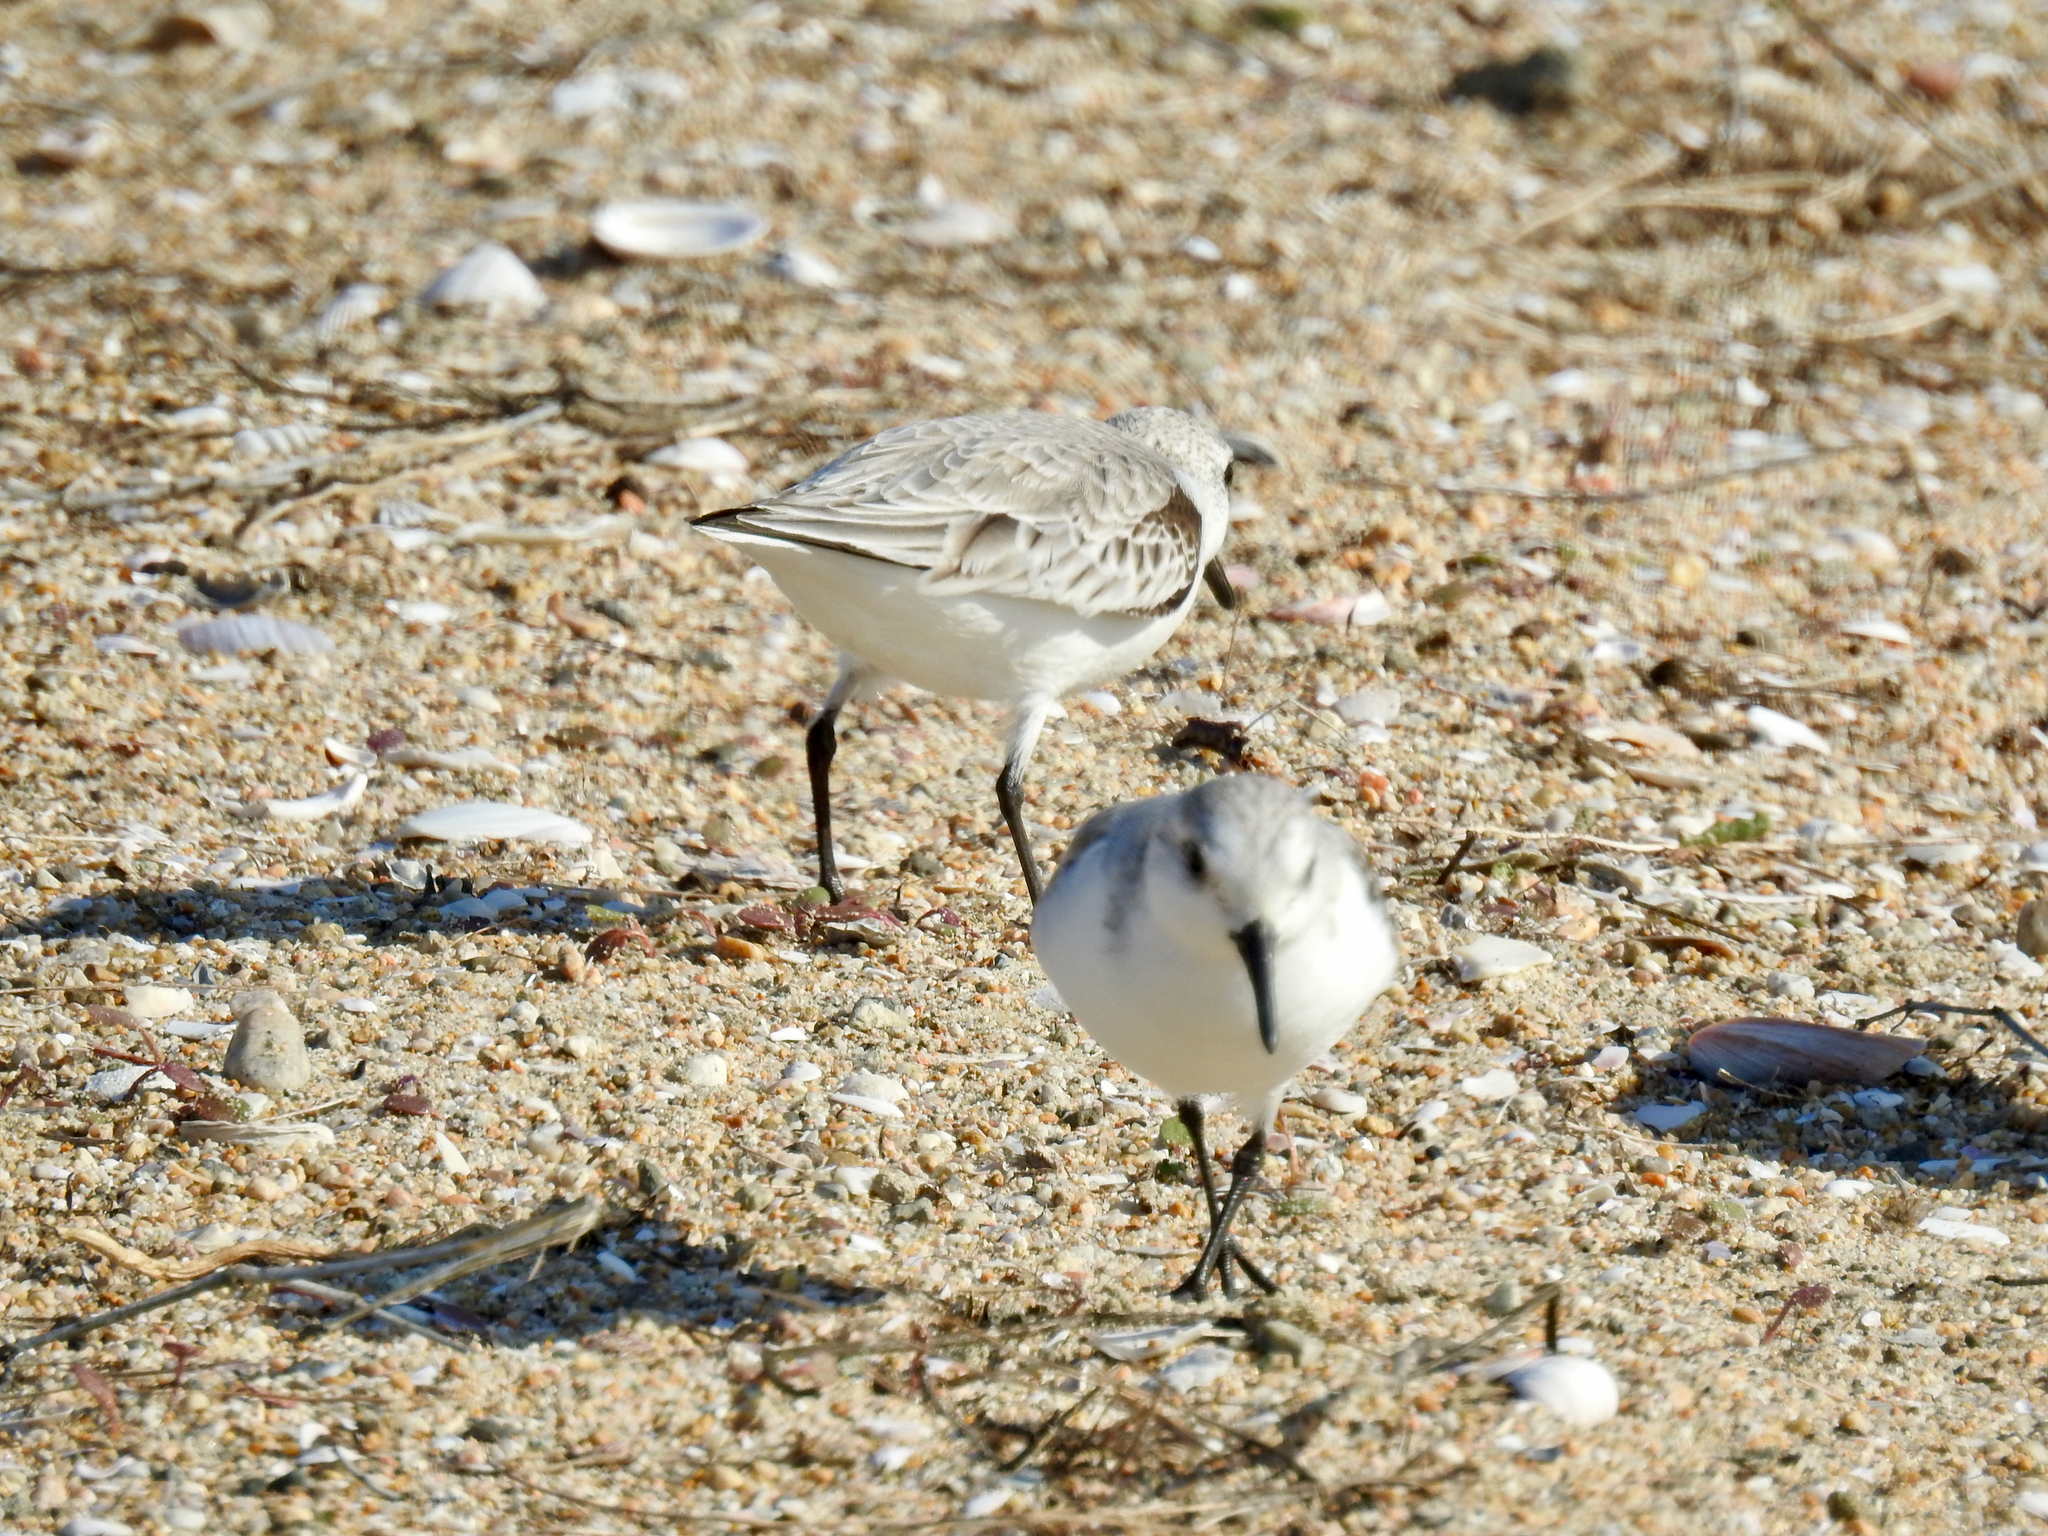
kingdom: Animalia
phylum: Chordata
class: Aves
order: Charadriiformes
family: Scolopacidae
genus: Calidris
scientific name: Calidris alba
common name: Sanderling
